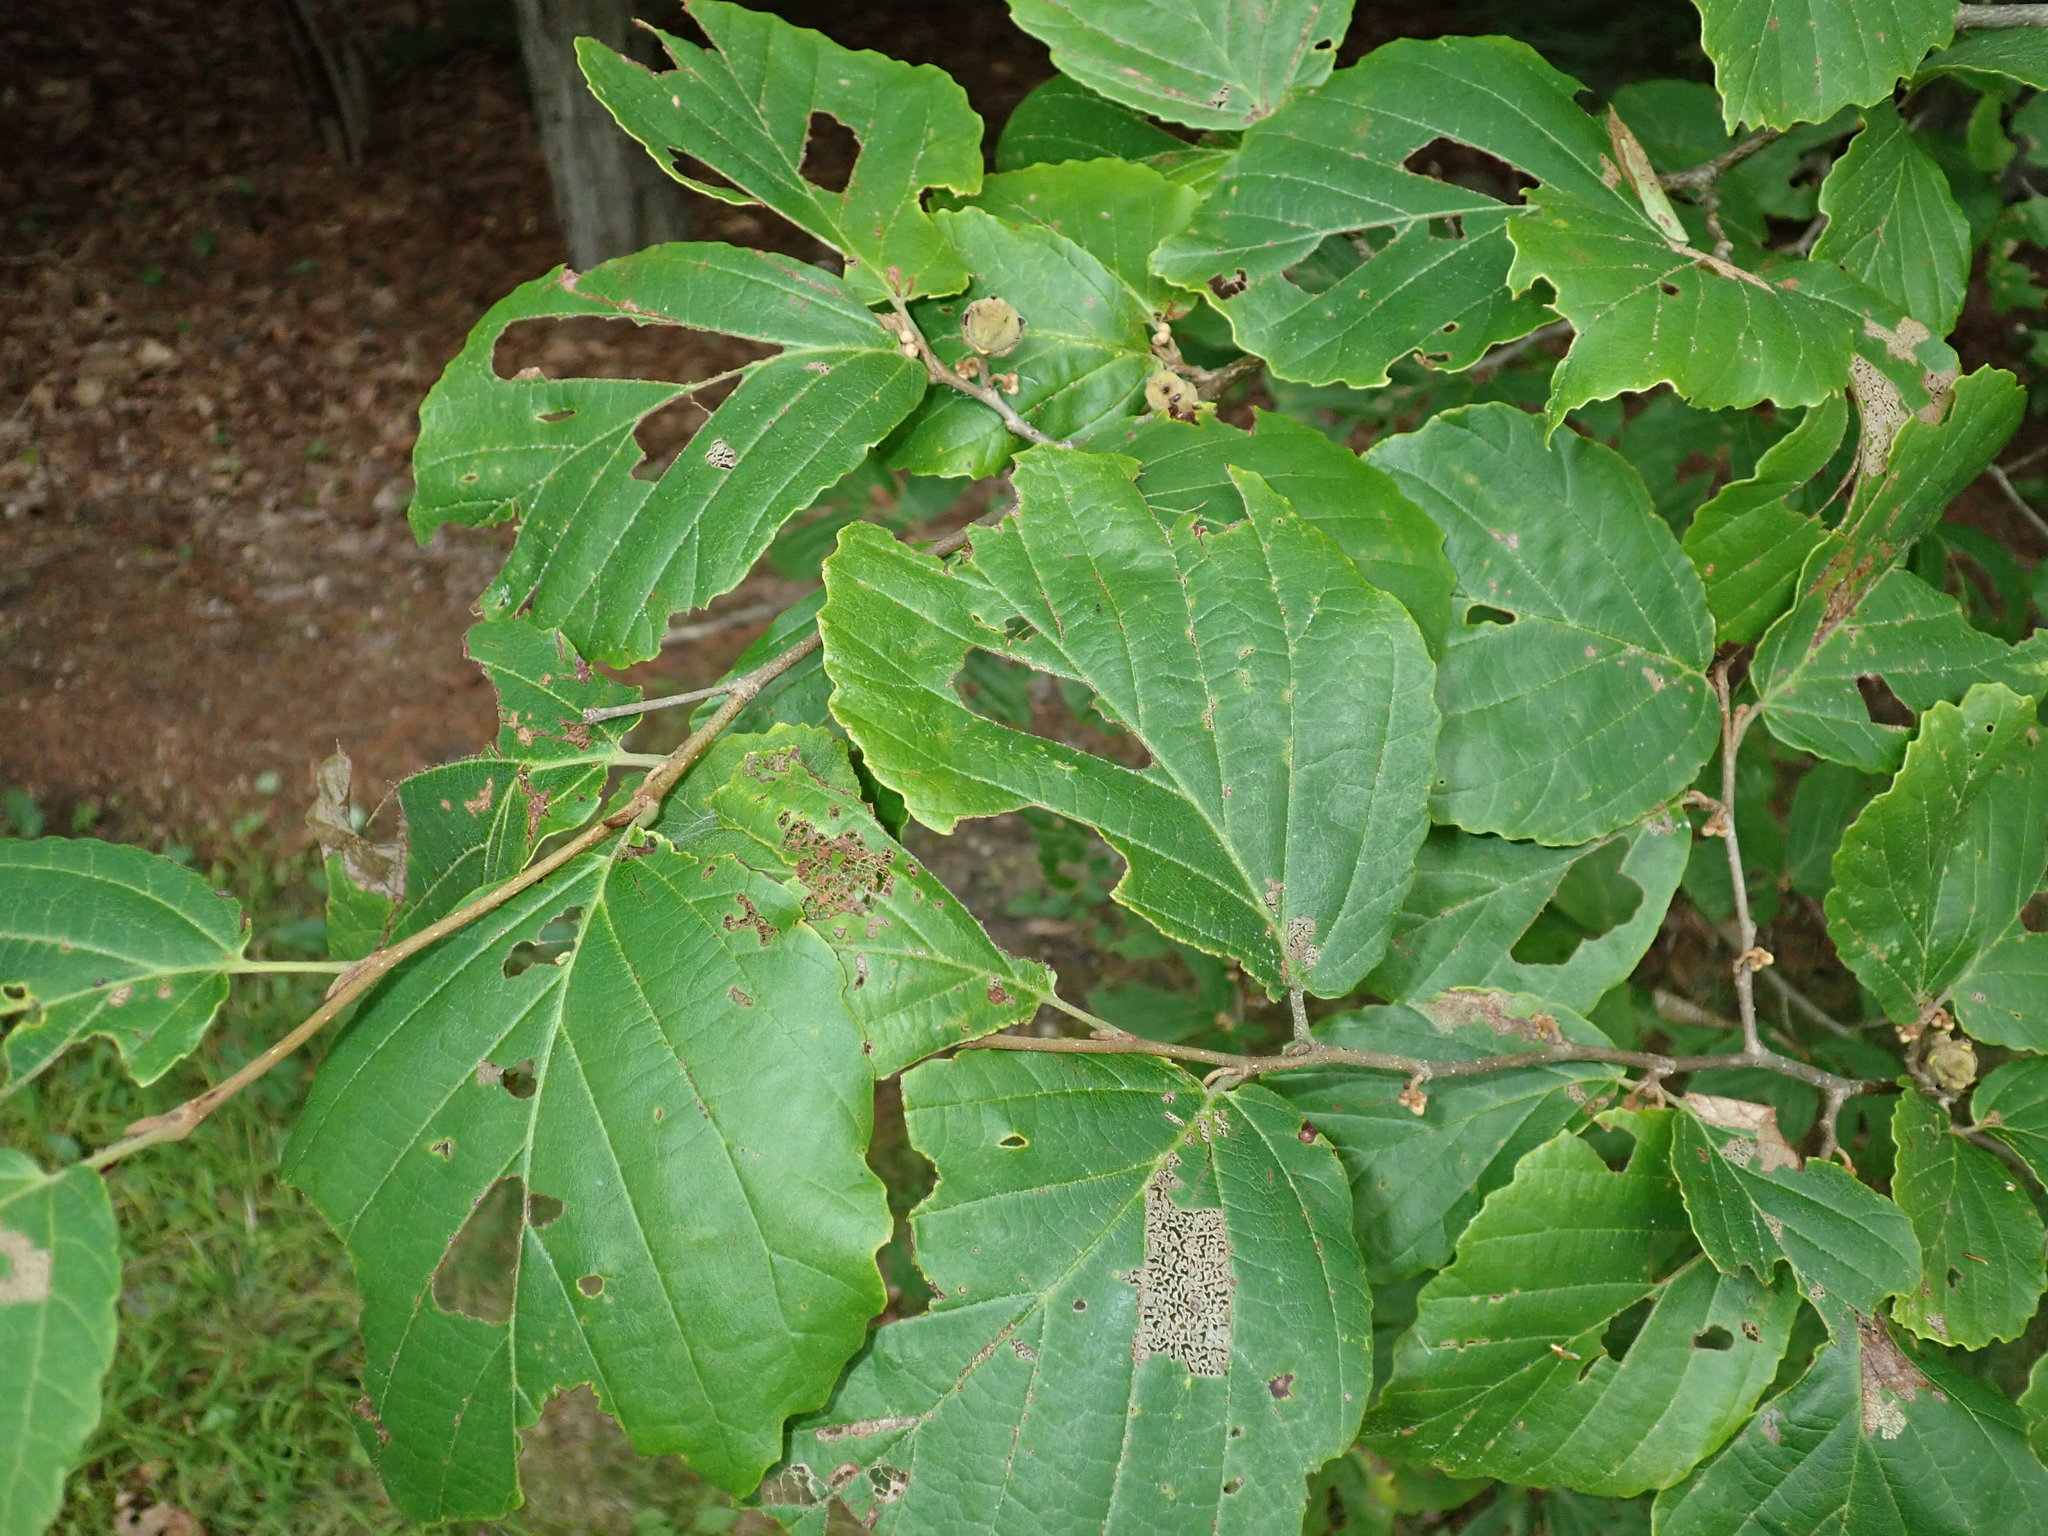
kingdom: Plantae
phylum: Tracheophyta
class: Magnoliopsida
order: Saxifragales
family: Hamamelidaceae
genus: Hamamelis
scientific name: Hamamelis virginiana
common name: Witch-hazel
